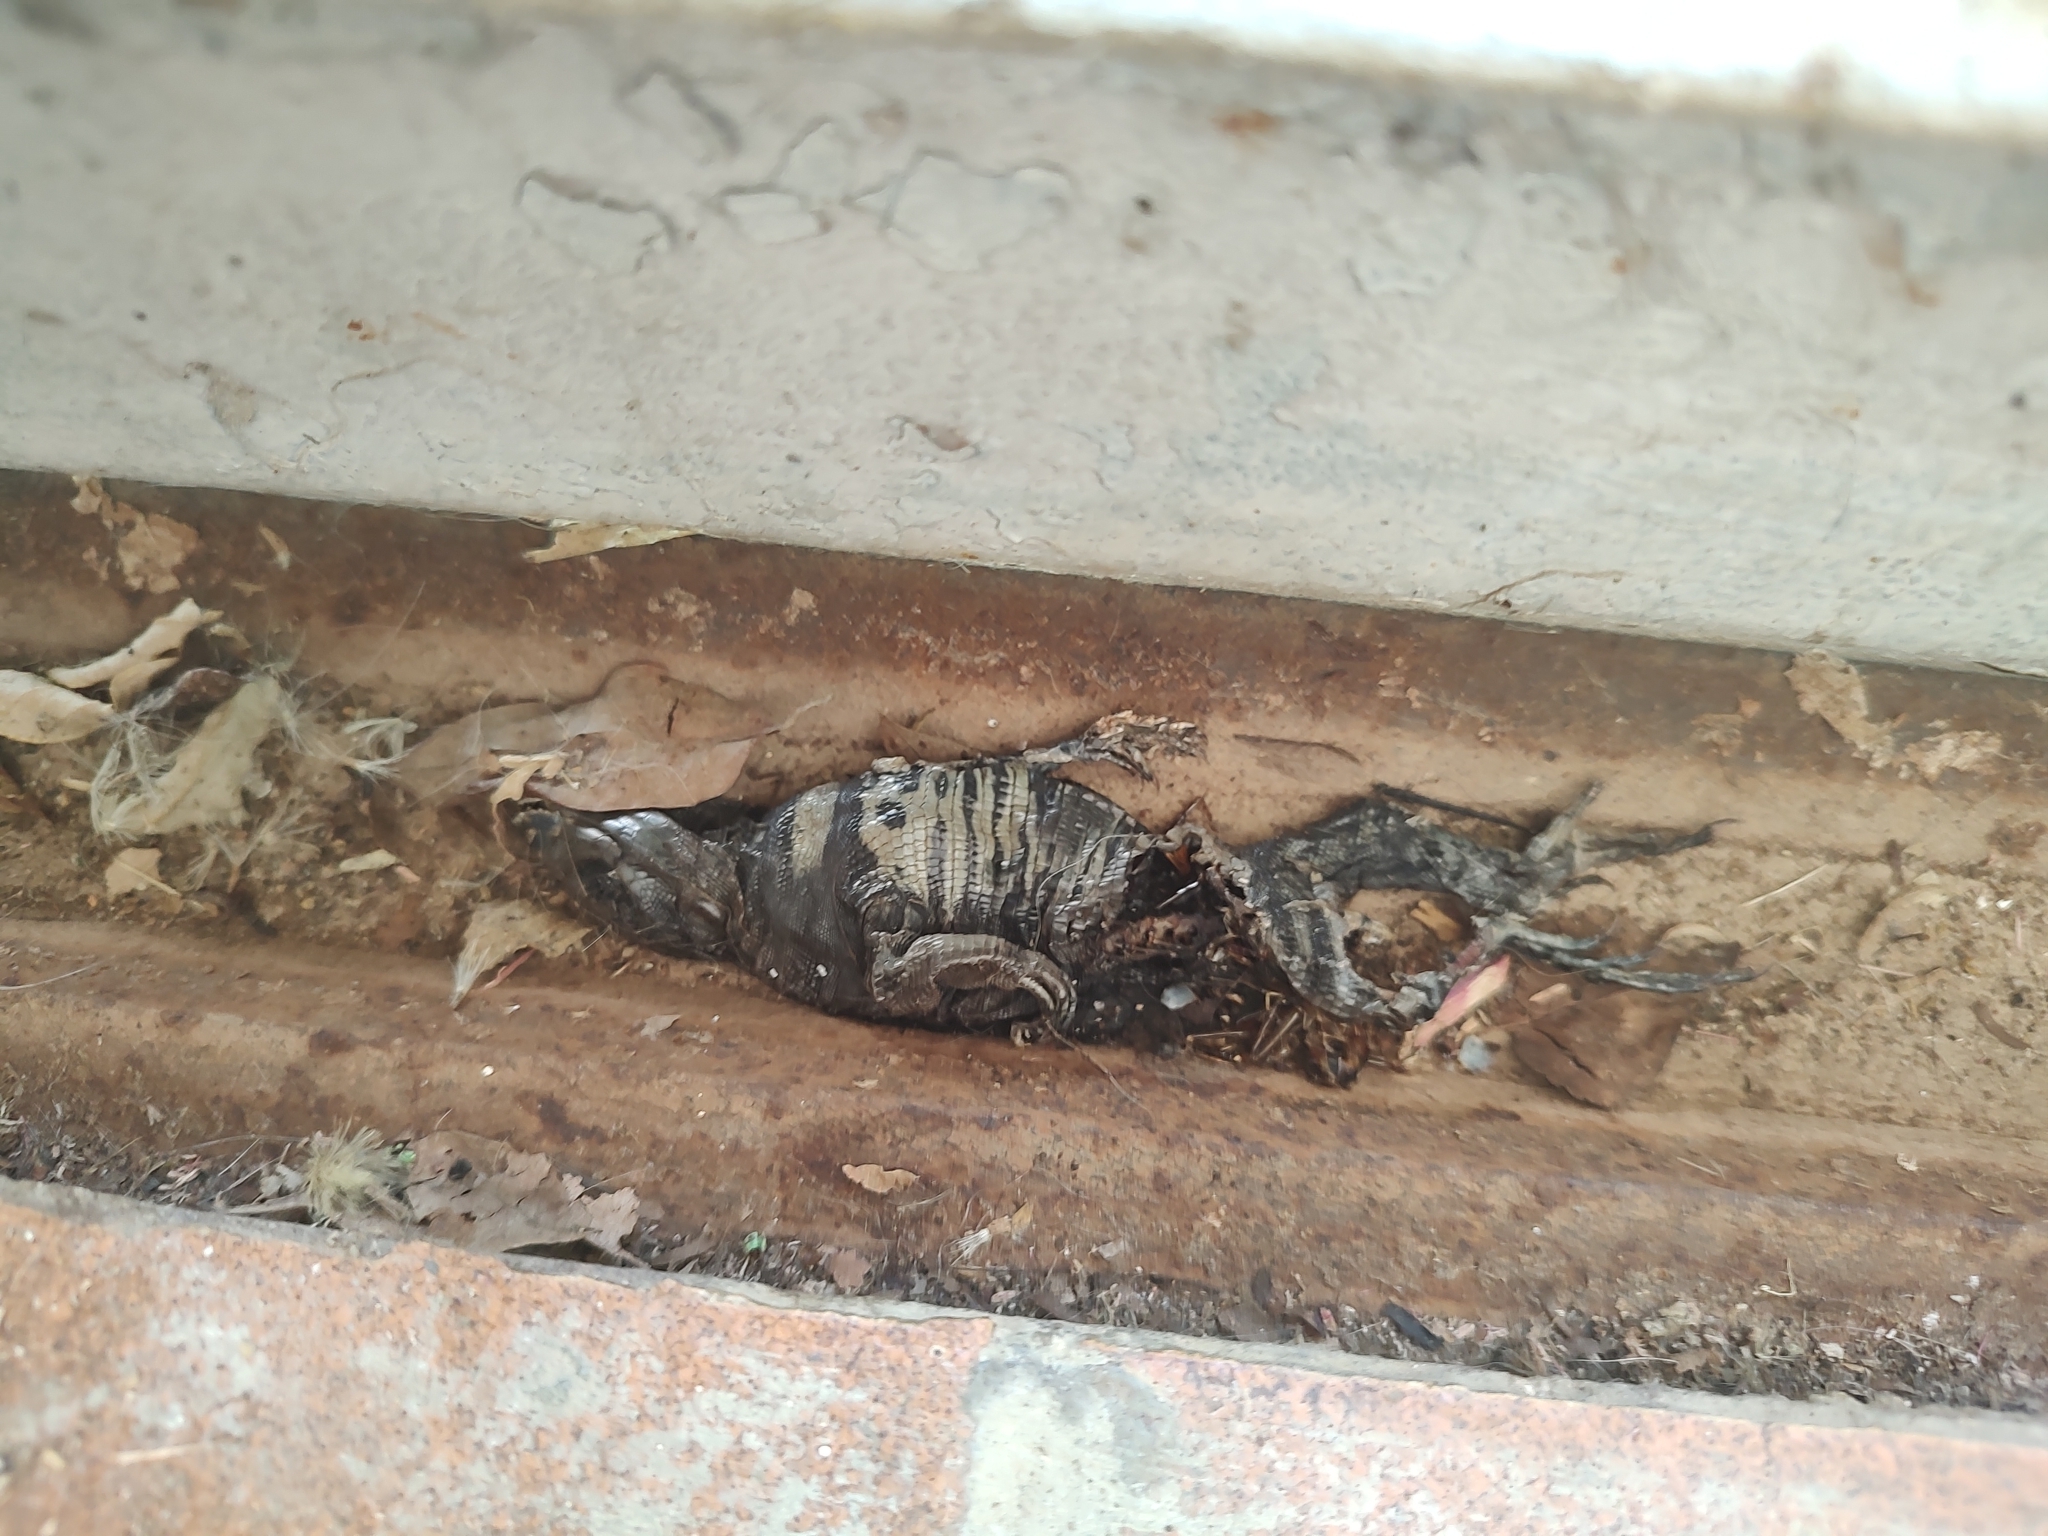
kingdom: Animalia
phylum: Chordata
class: Squamata
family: Teiidae
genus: Salvator
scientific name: Salvator merianae
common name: Argentine black and white tegu
